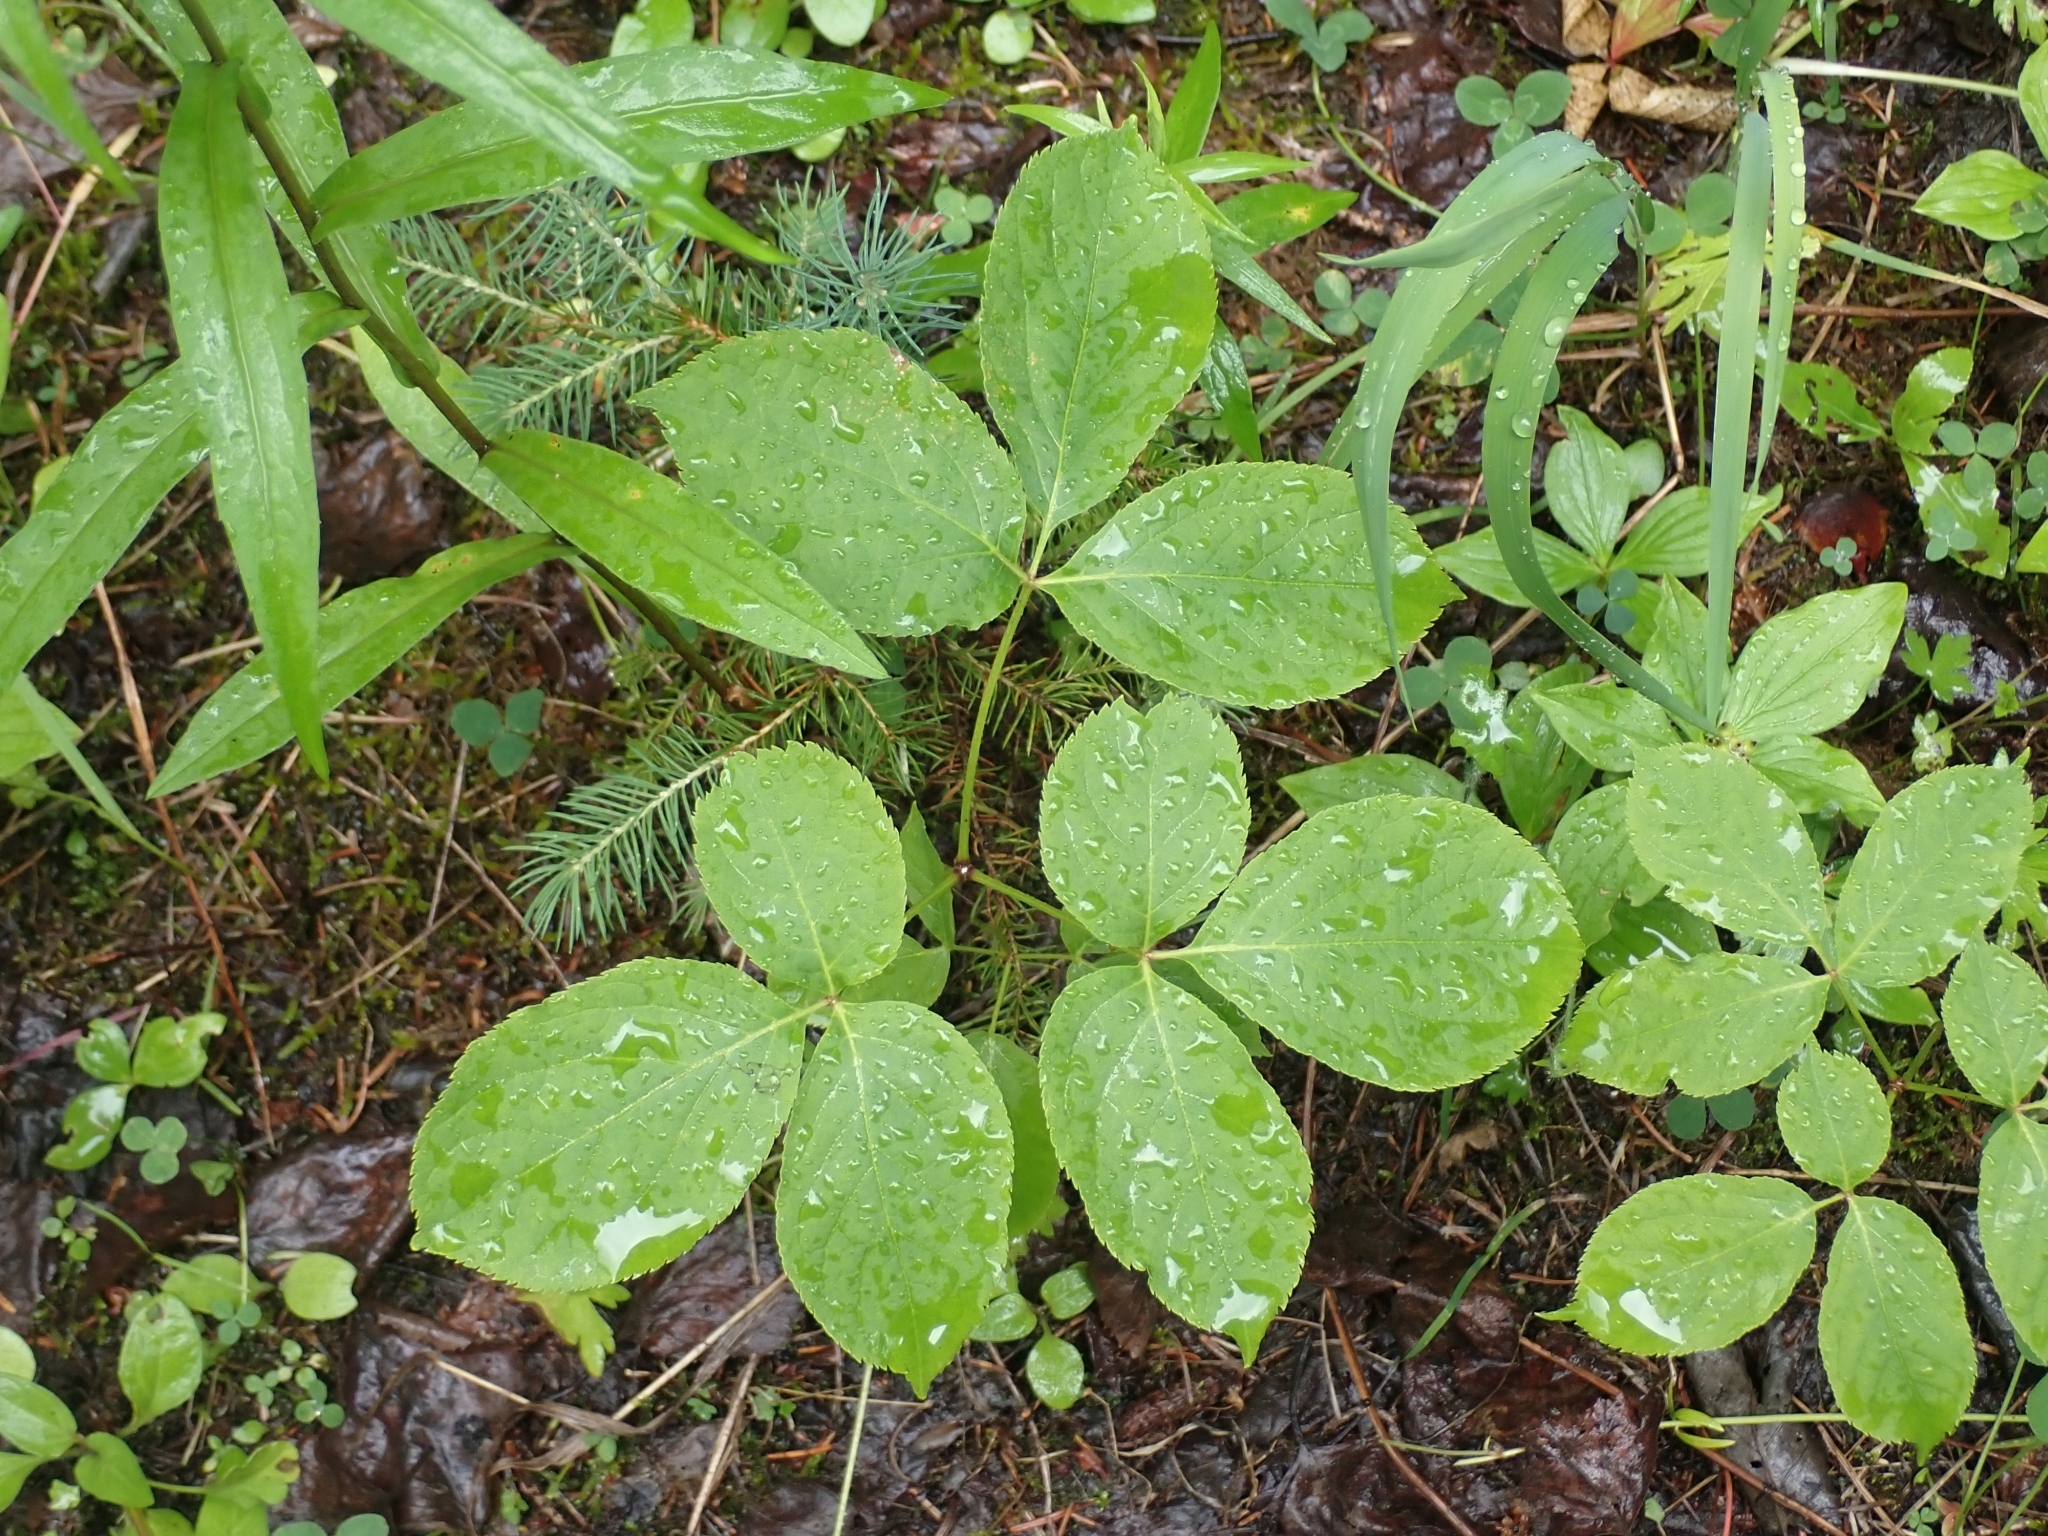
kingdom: Plantae
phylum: Tracheophyta
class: Magnoliopsida
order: Apiales
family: Araliaceae
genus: Aralia
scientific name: Aralia nudicaulis
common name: Wild sarsaparilla
